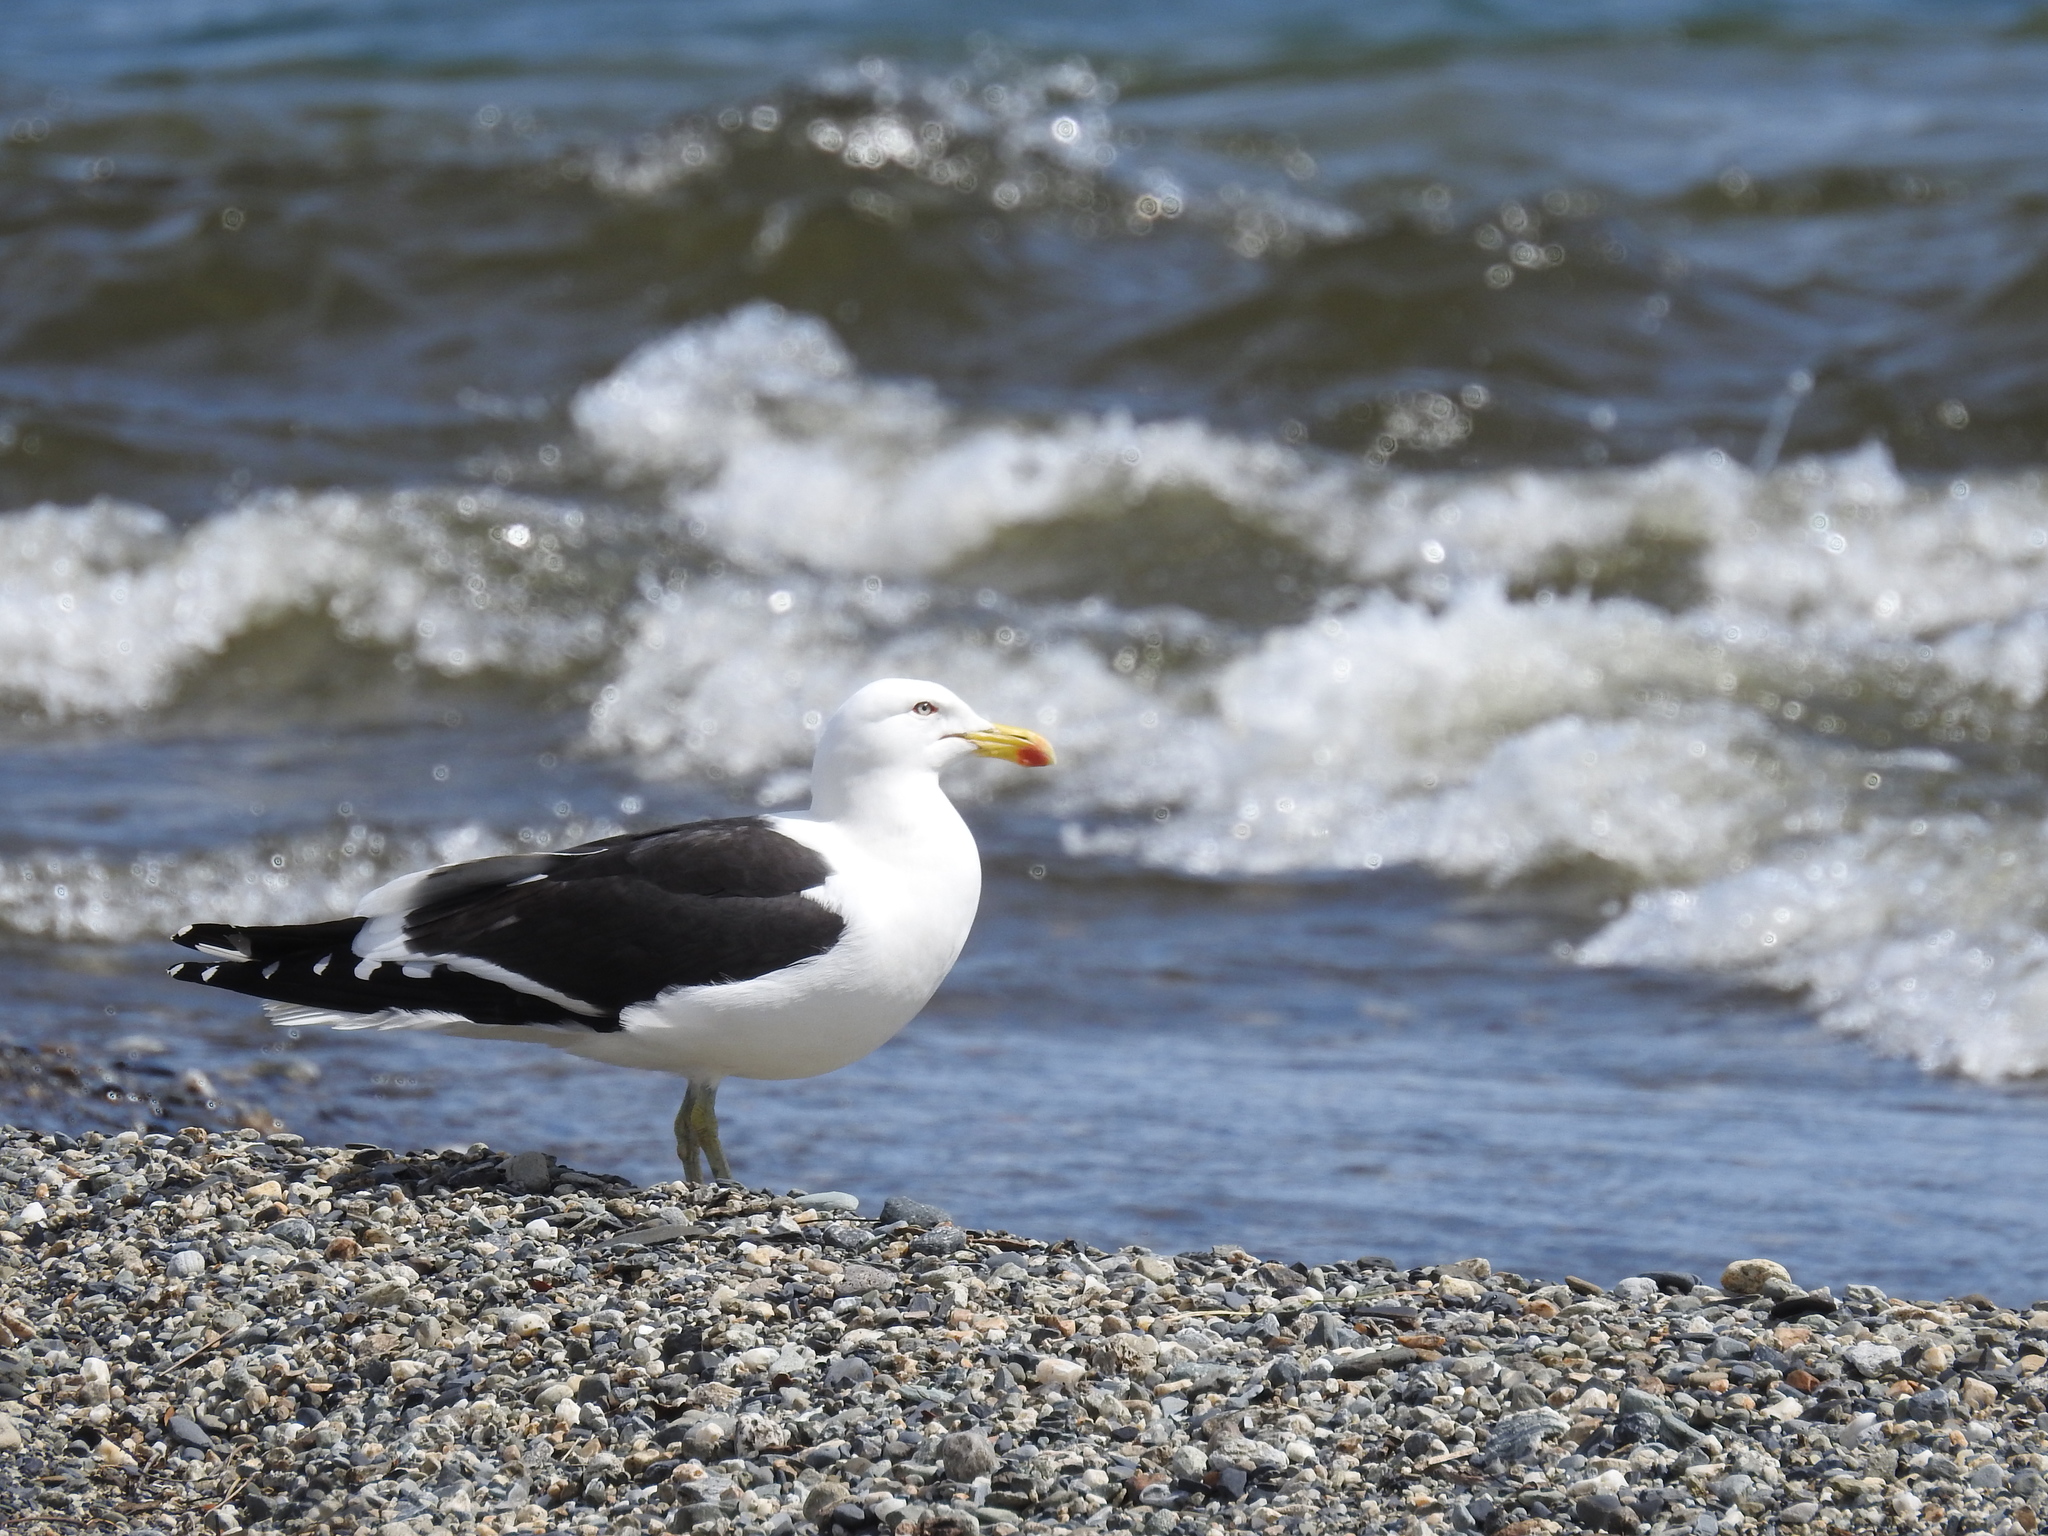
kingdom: Animalia
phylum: Chordata
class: Aves
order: Charadriiformes
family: Laridae
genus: Larus
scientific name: Larus dominicanus
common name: Kelp gull
